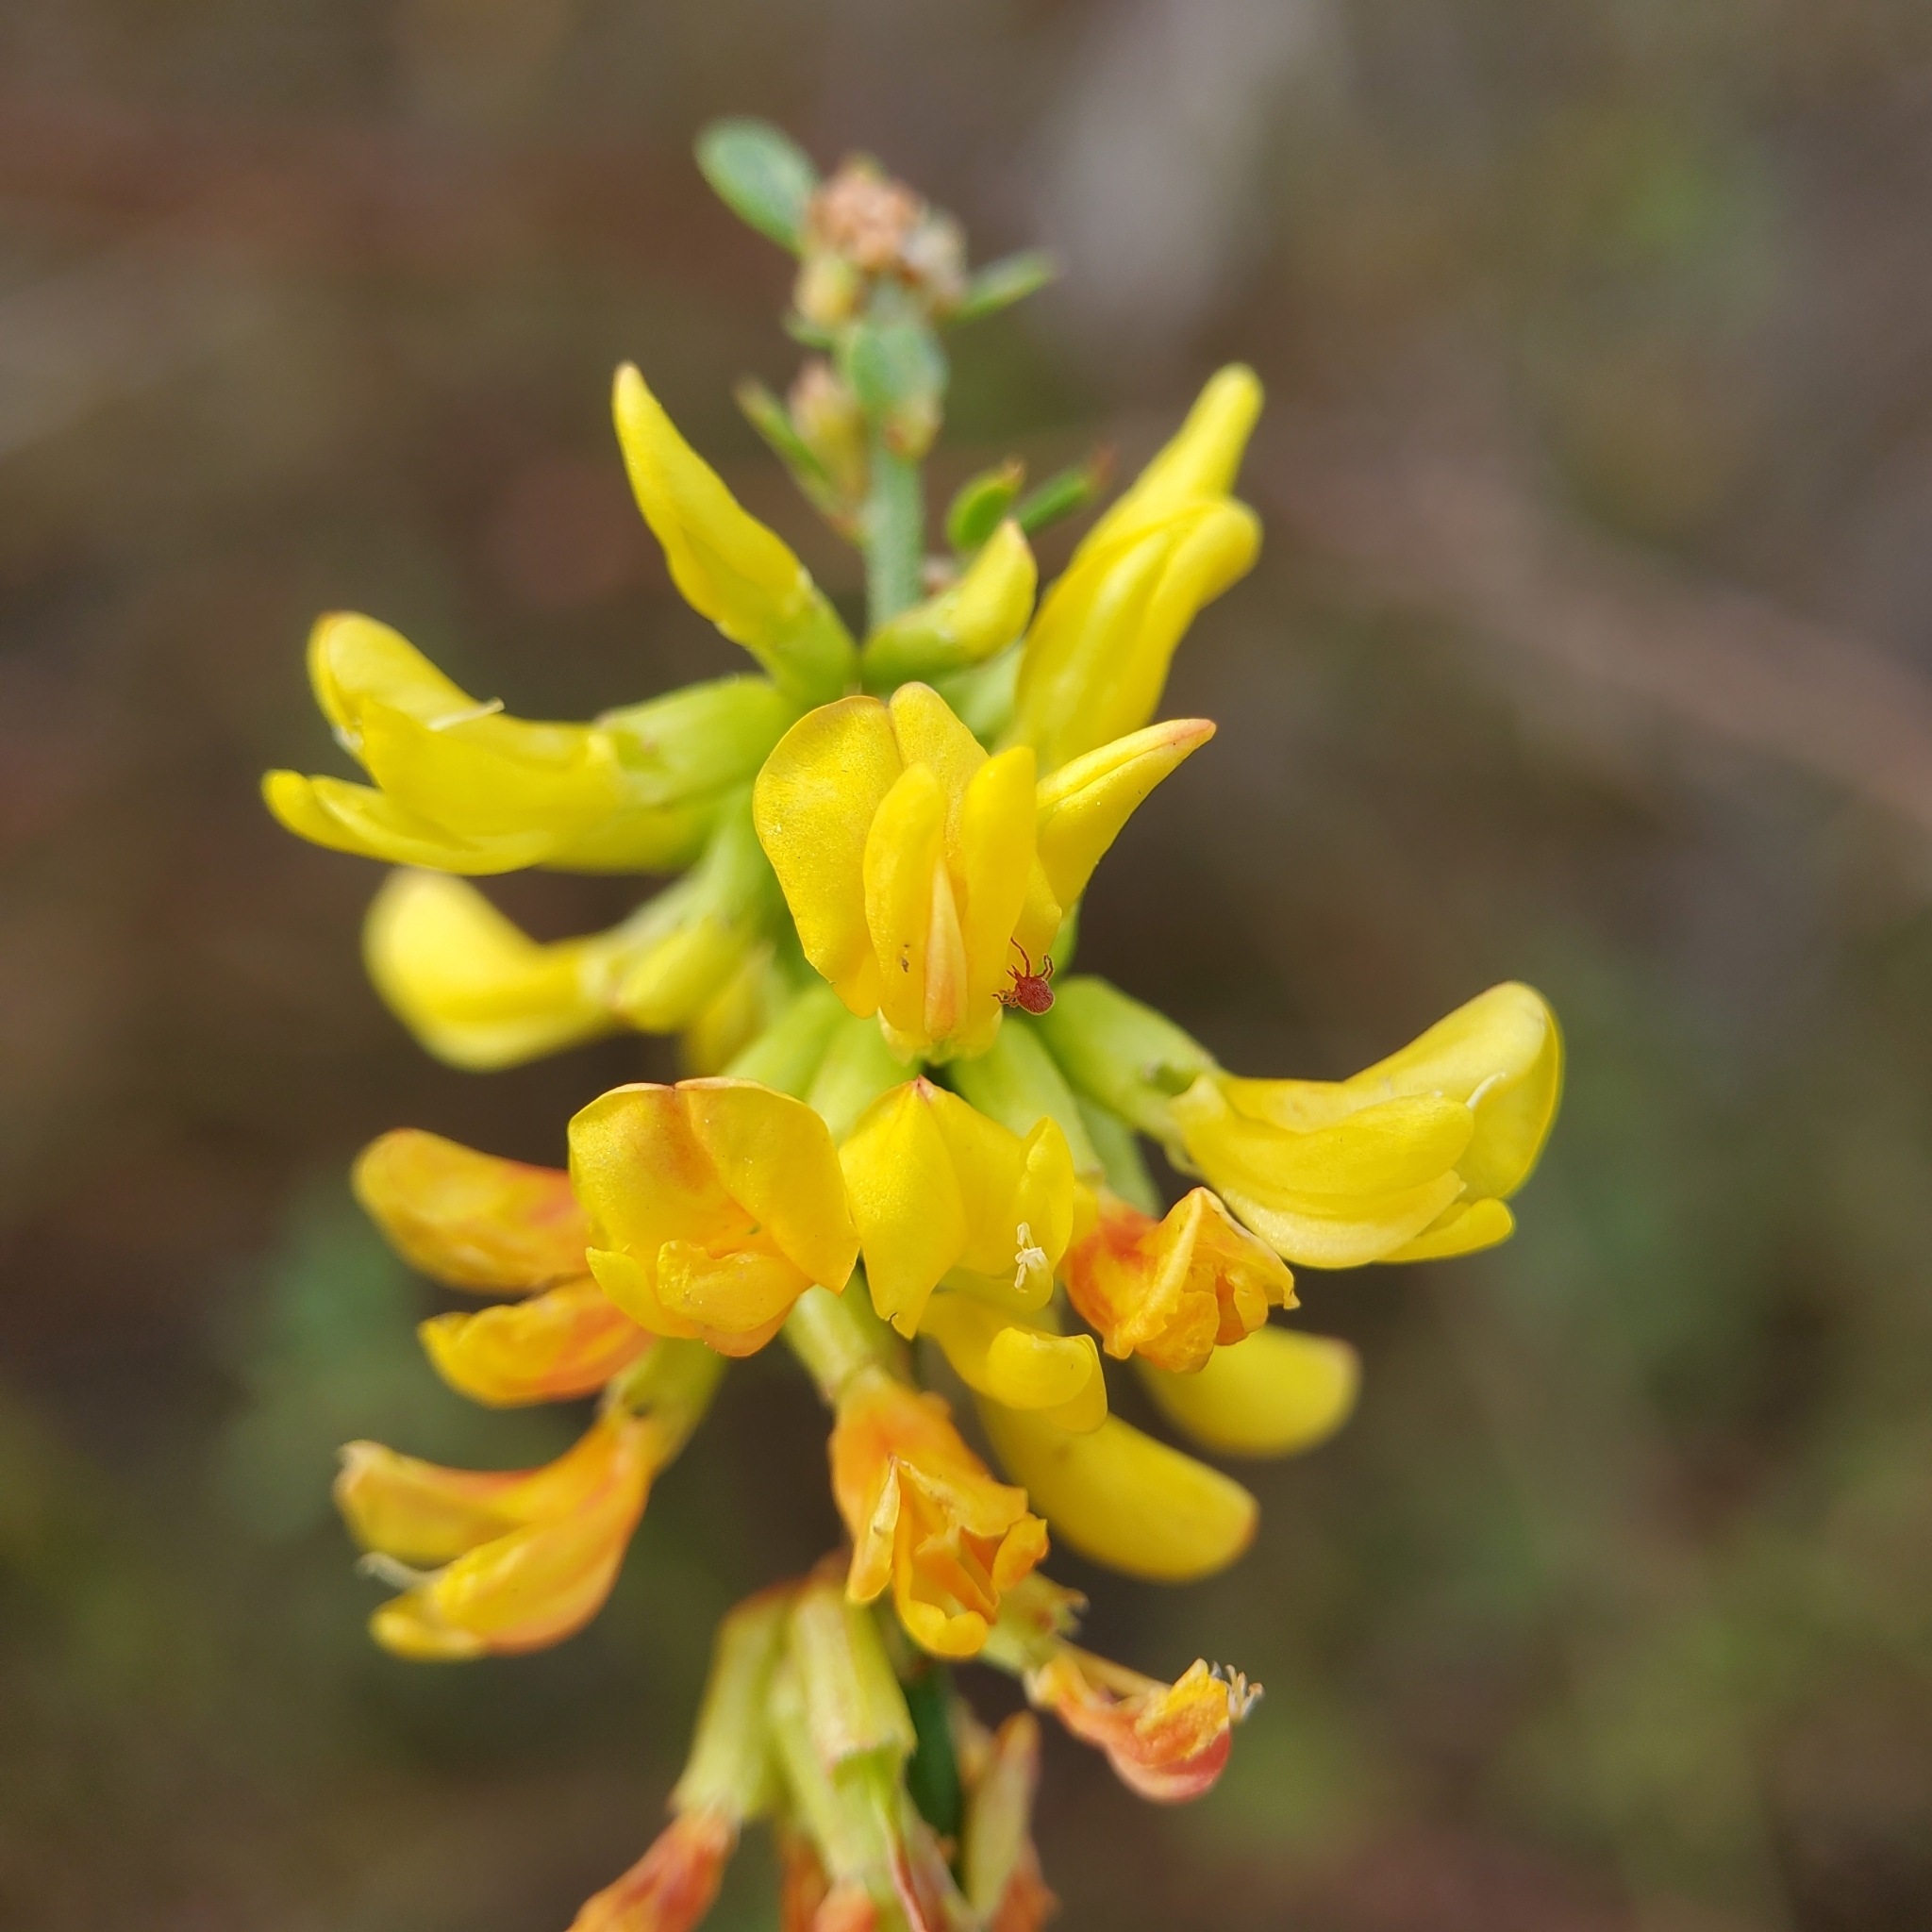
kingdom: Plantae
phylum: Tracheophyta
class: Magnoliopsida
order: Fabales
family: Fabaceae
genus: Acmispon
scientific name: Acmispon glaber
